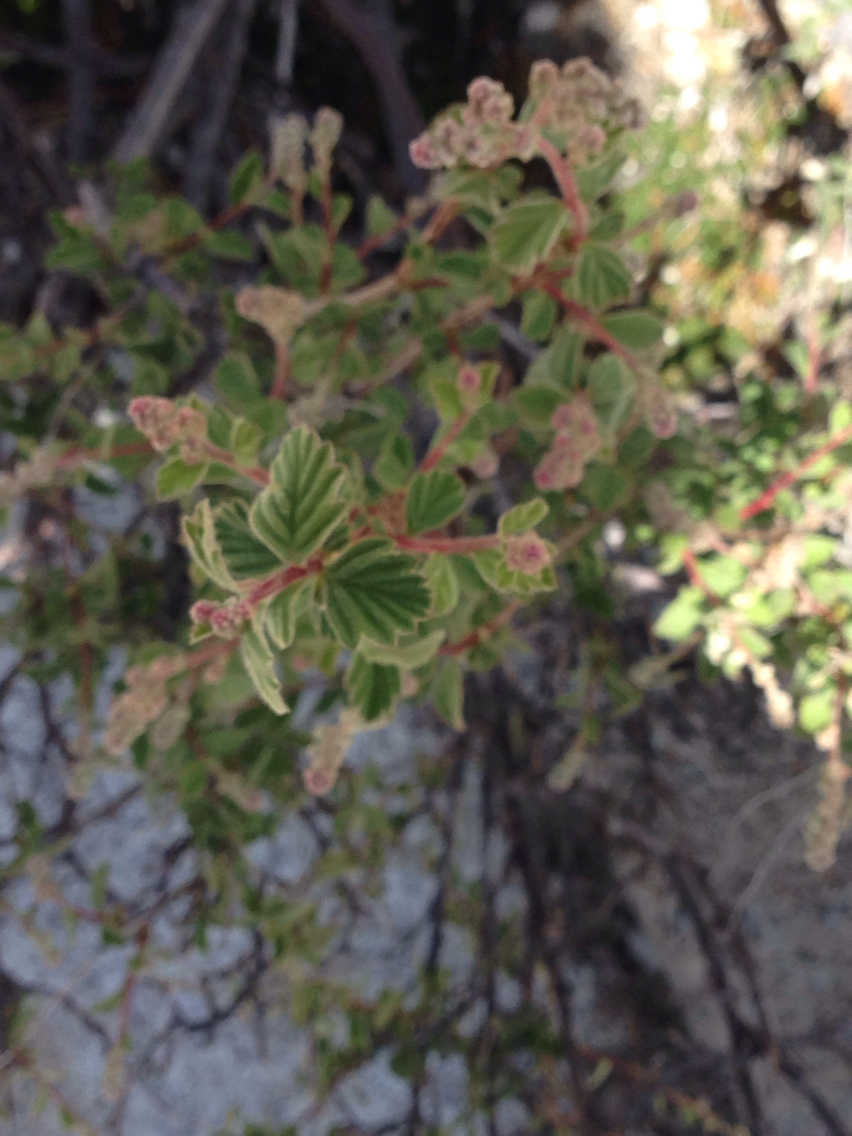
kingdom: Plantae
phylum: Tracheophyta
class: Magnoliopsida
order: Rosales
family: Rosaceae
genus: Holodiscus
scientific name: Holodiscus discolor
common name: Oceanspray
